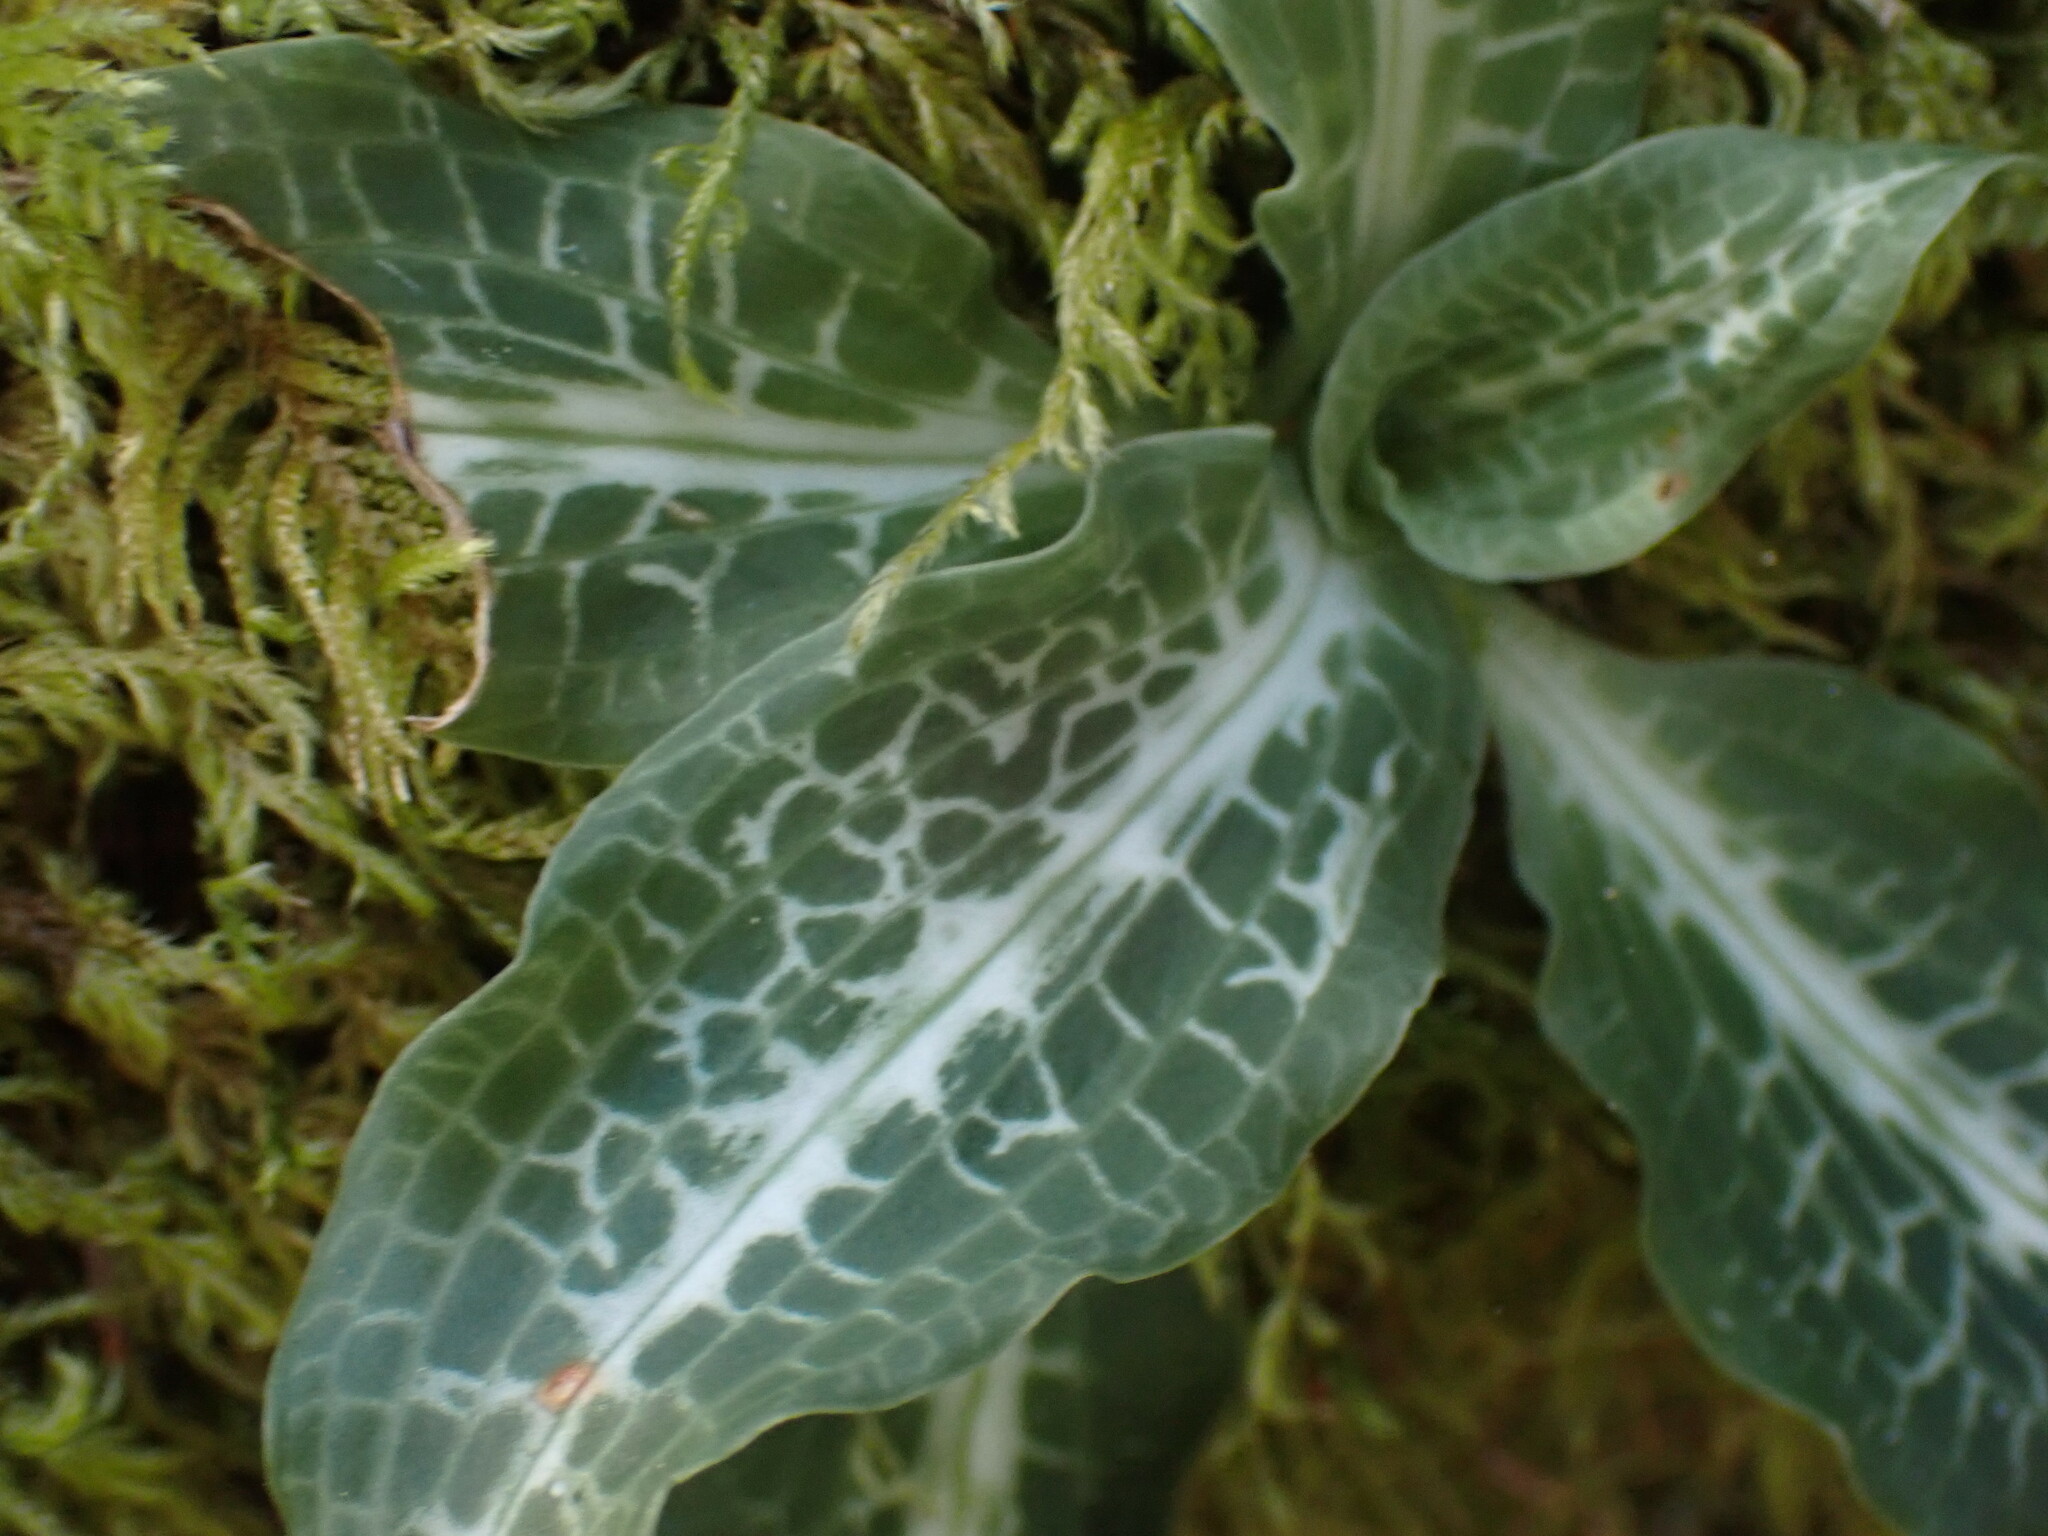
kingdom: Plantae
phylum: Tracheophyta
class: Liliopsida
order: Asparagales
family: Orchidaceae
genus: Goodyera
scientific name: Goodyera oblongifolia
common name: Giant rattlesnake-plantain
